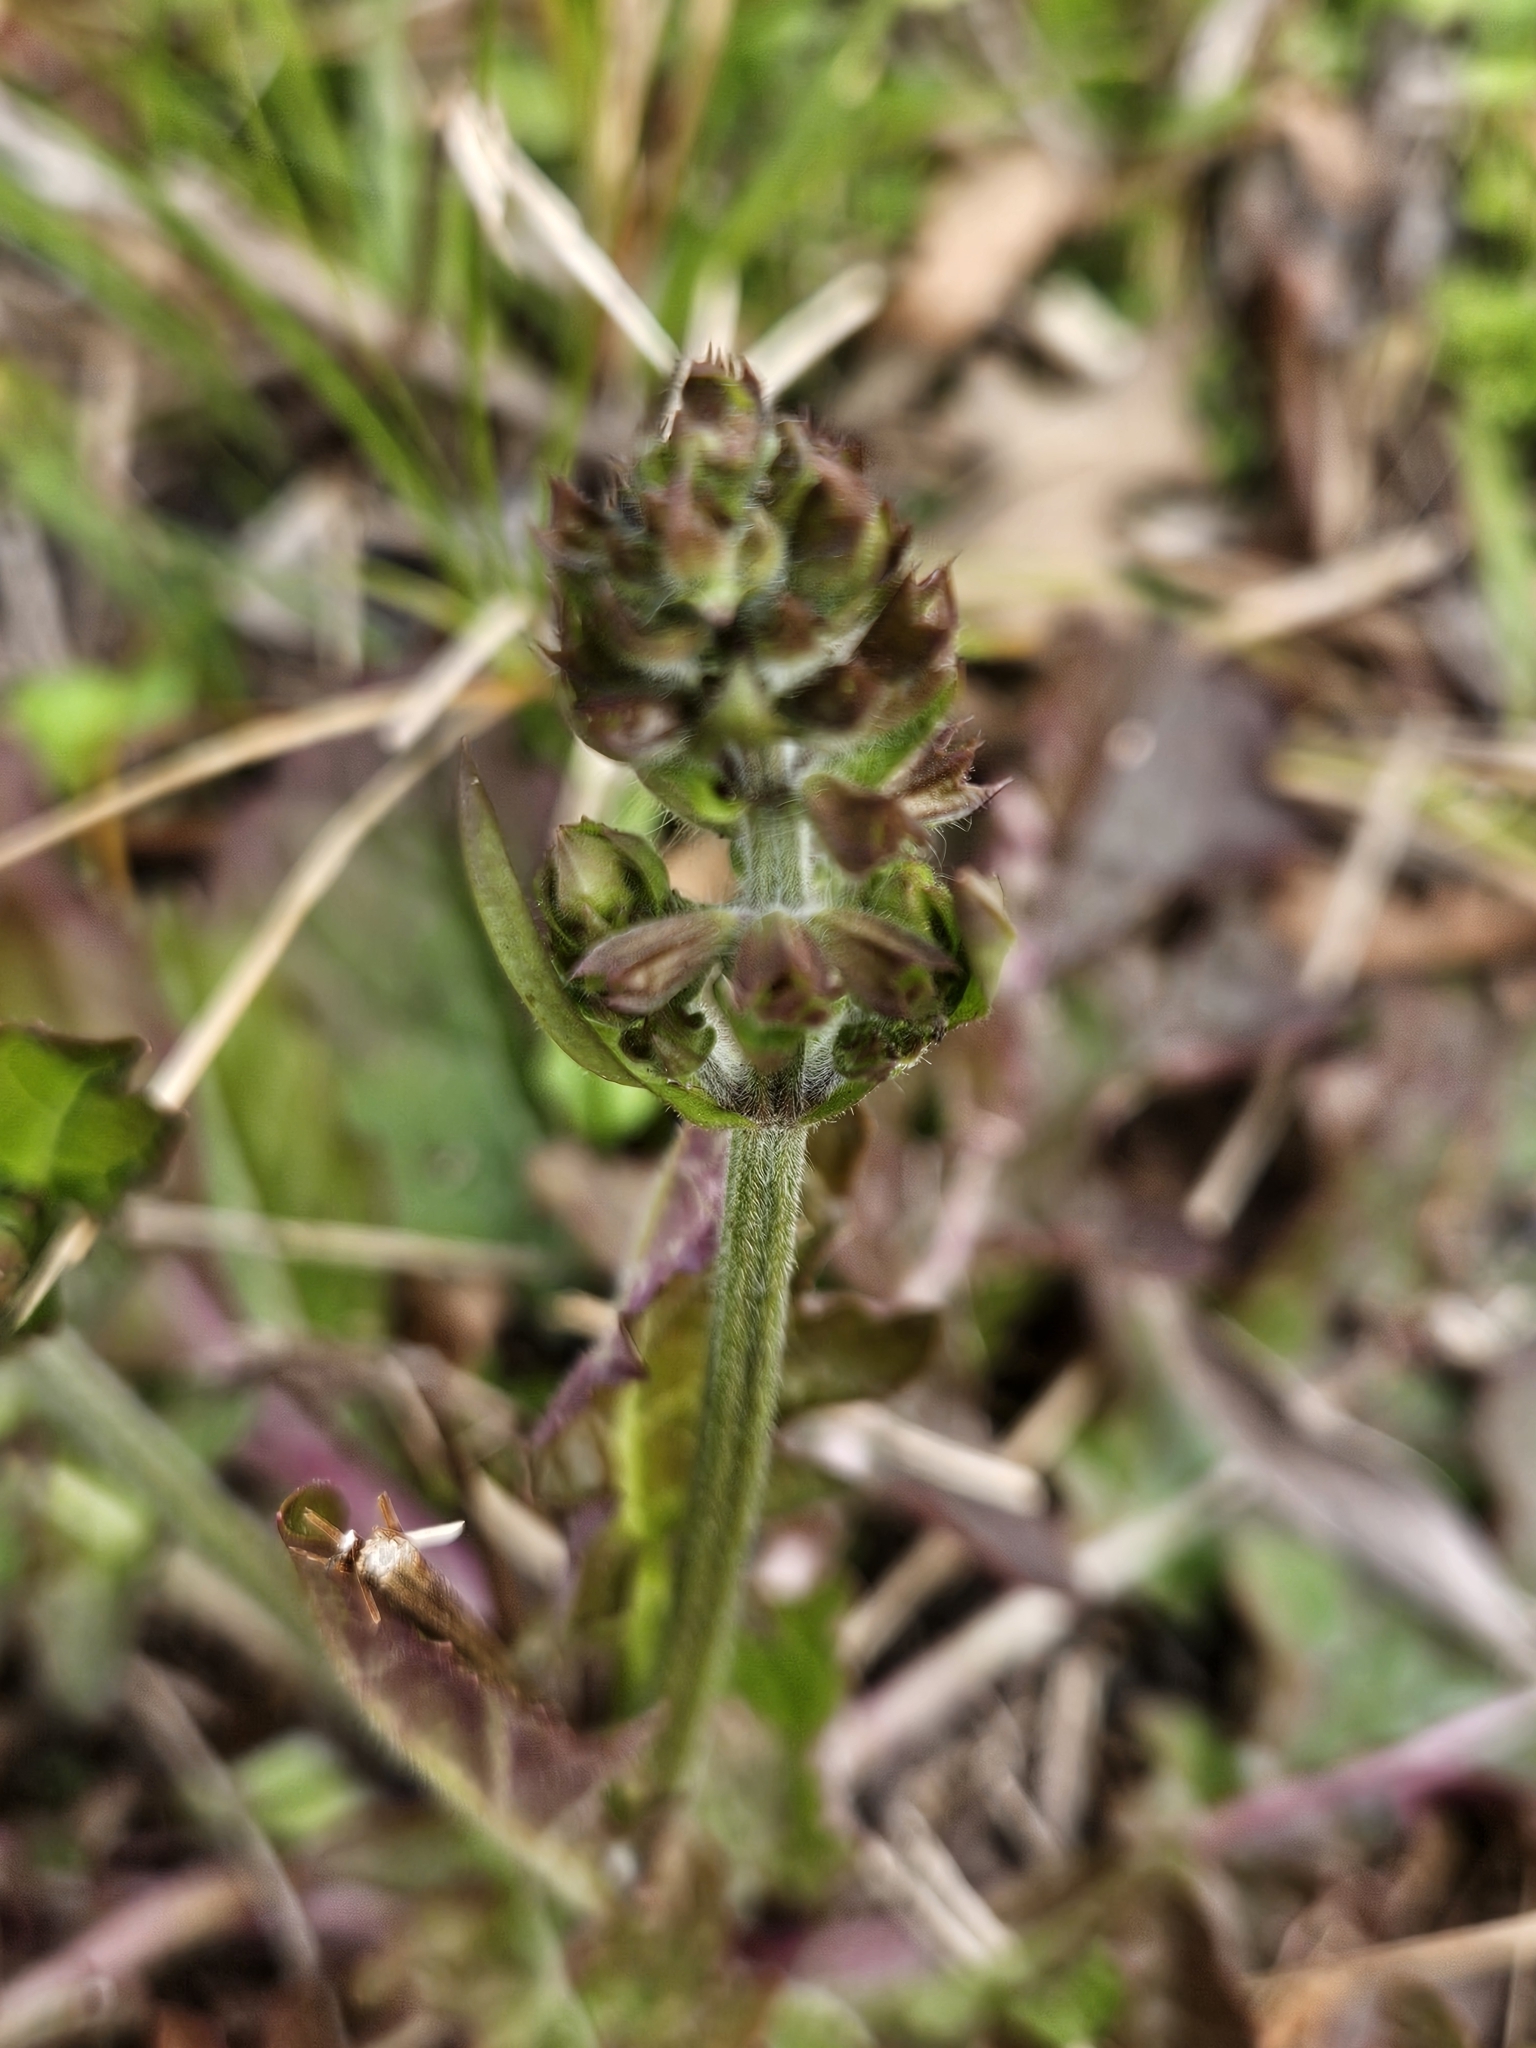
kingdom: Plantae
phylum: Tracheophyta
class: Magnoliopsida
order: Lamiales
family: Lamiaceae
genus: Salvia
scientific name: Salvia lyrata
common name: Cancerweed
